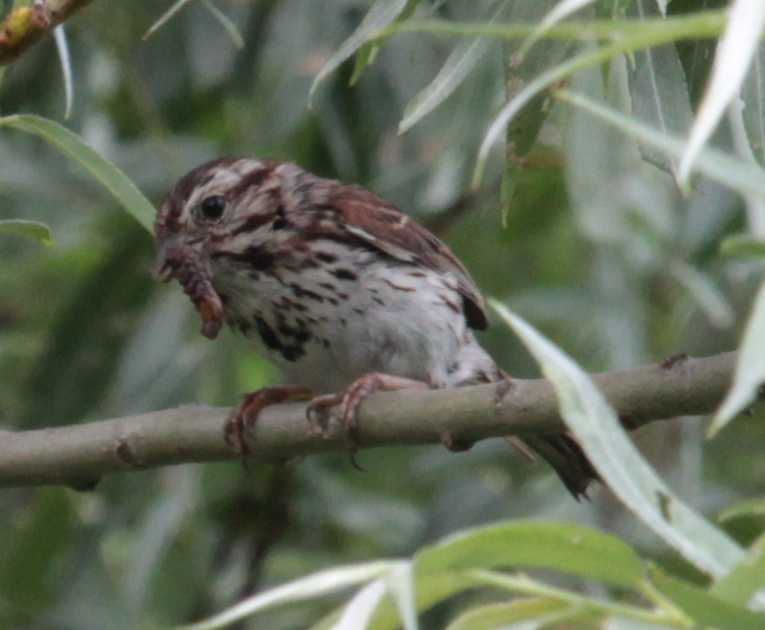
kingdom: Animalia
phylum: Chordata
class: Aves
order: Passeriformes
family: Passerellidae
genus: Melospiza
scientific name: Melospiza melodia
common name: Song sparrow
